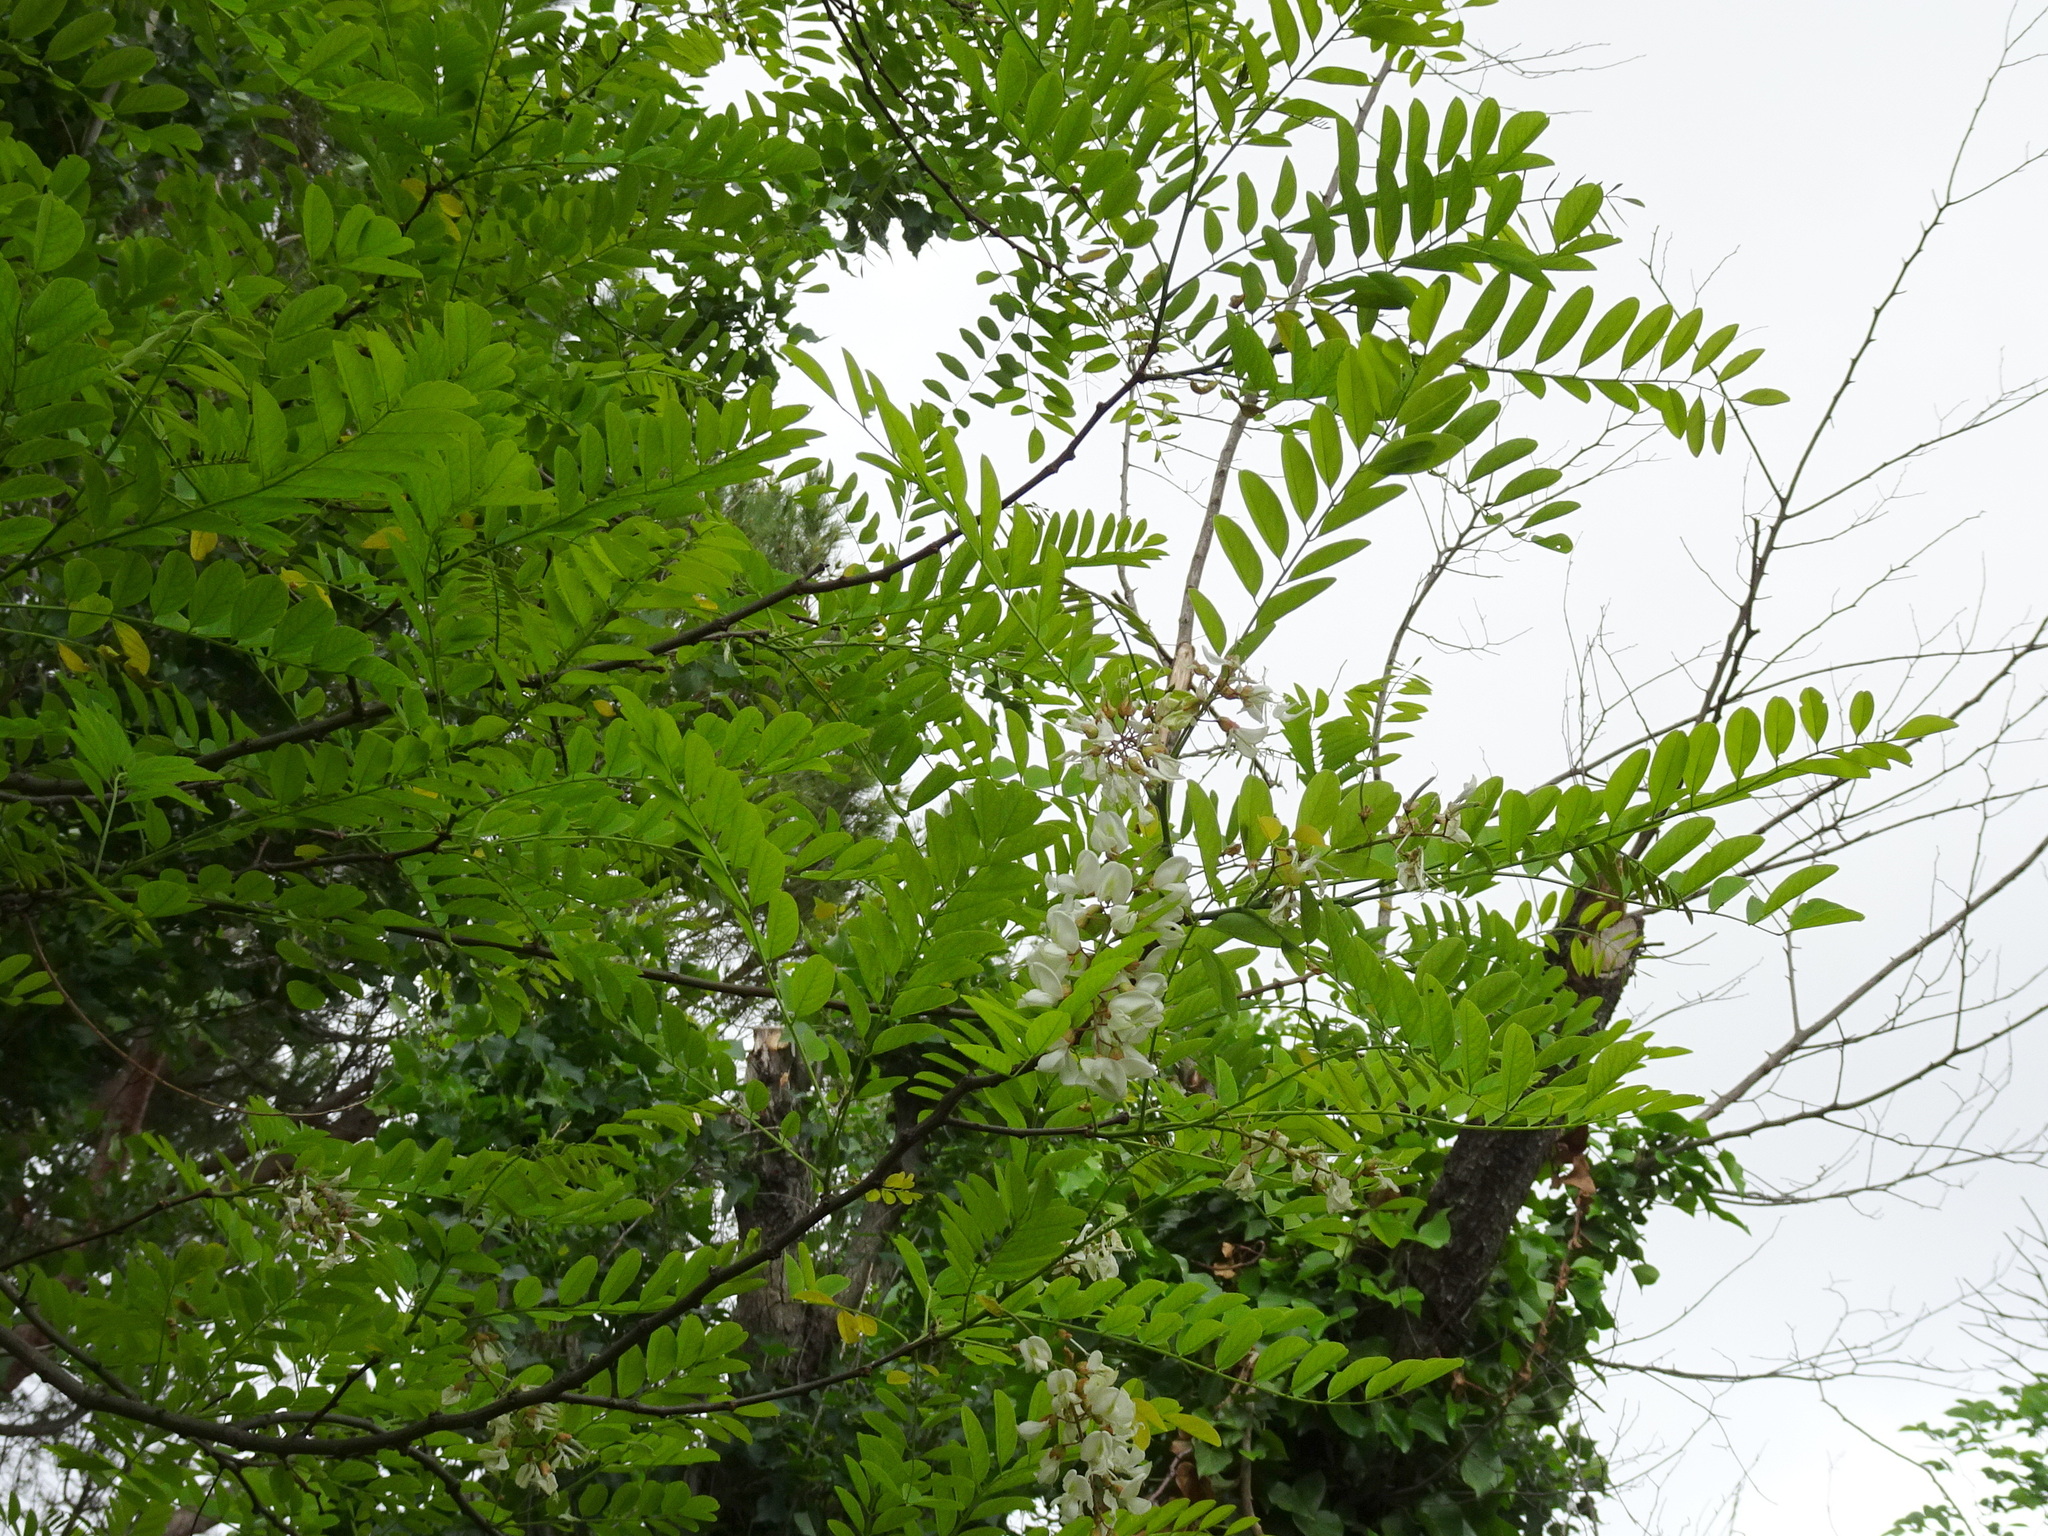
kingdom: Plantae
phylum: Tracheophyta
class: Magnoliopsida
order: Fabales
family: Fabaceae
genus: Robinia
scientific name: Robinia pseudoacacia
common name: Black locust
